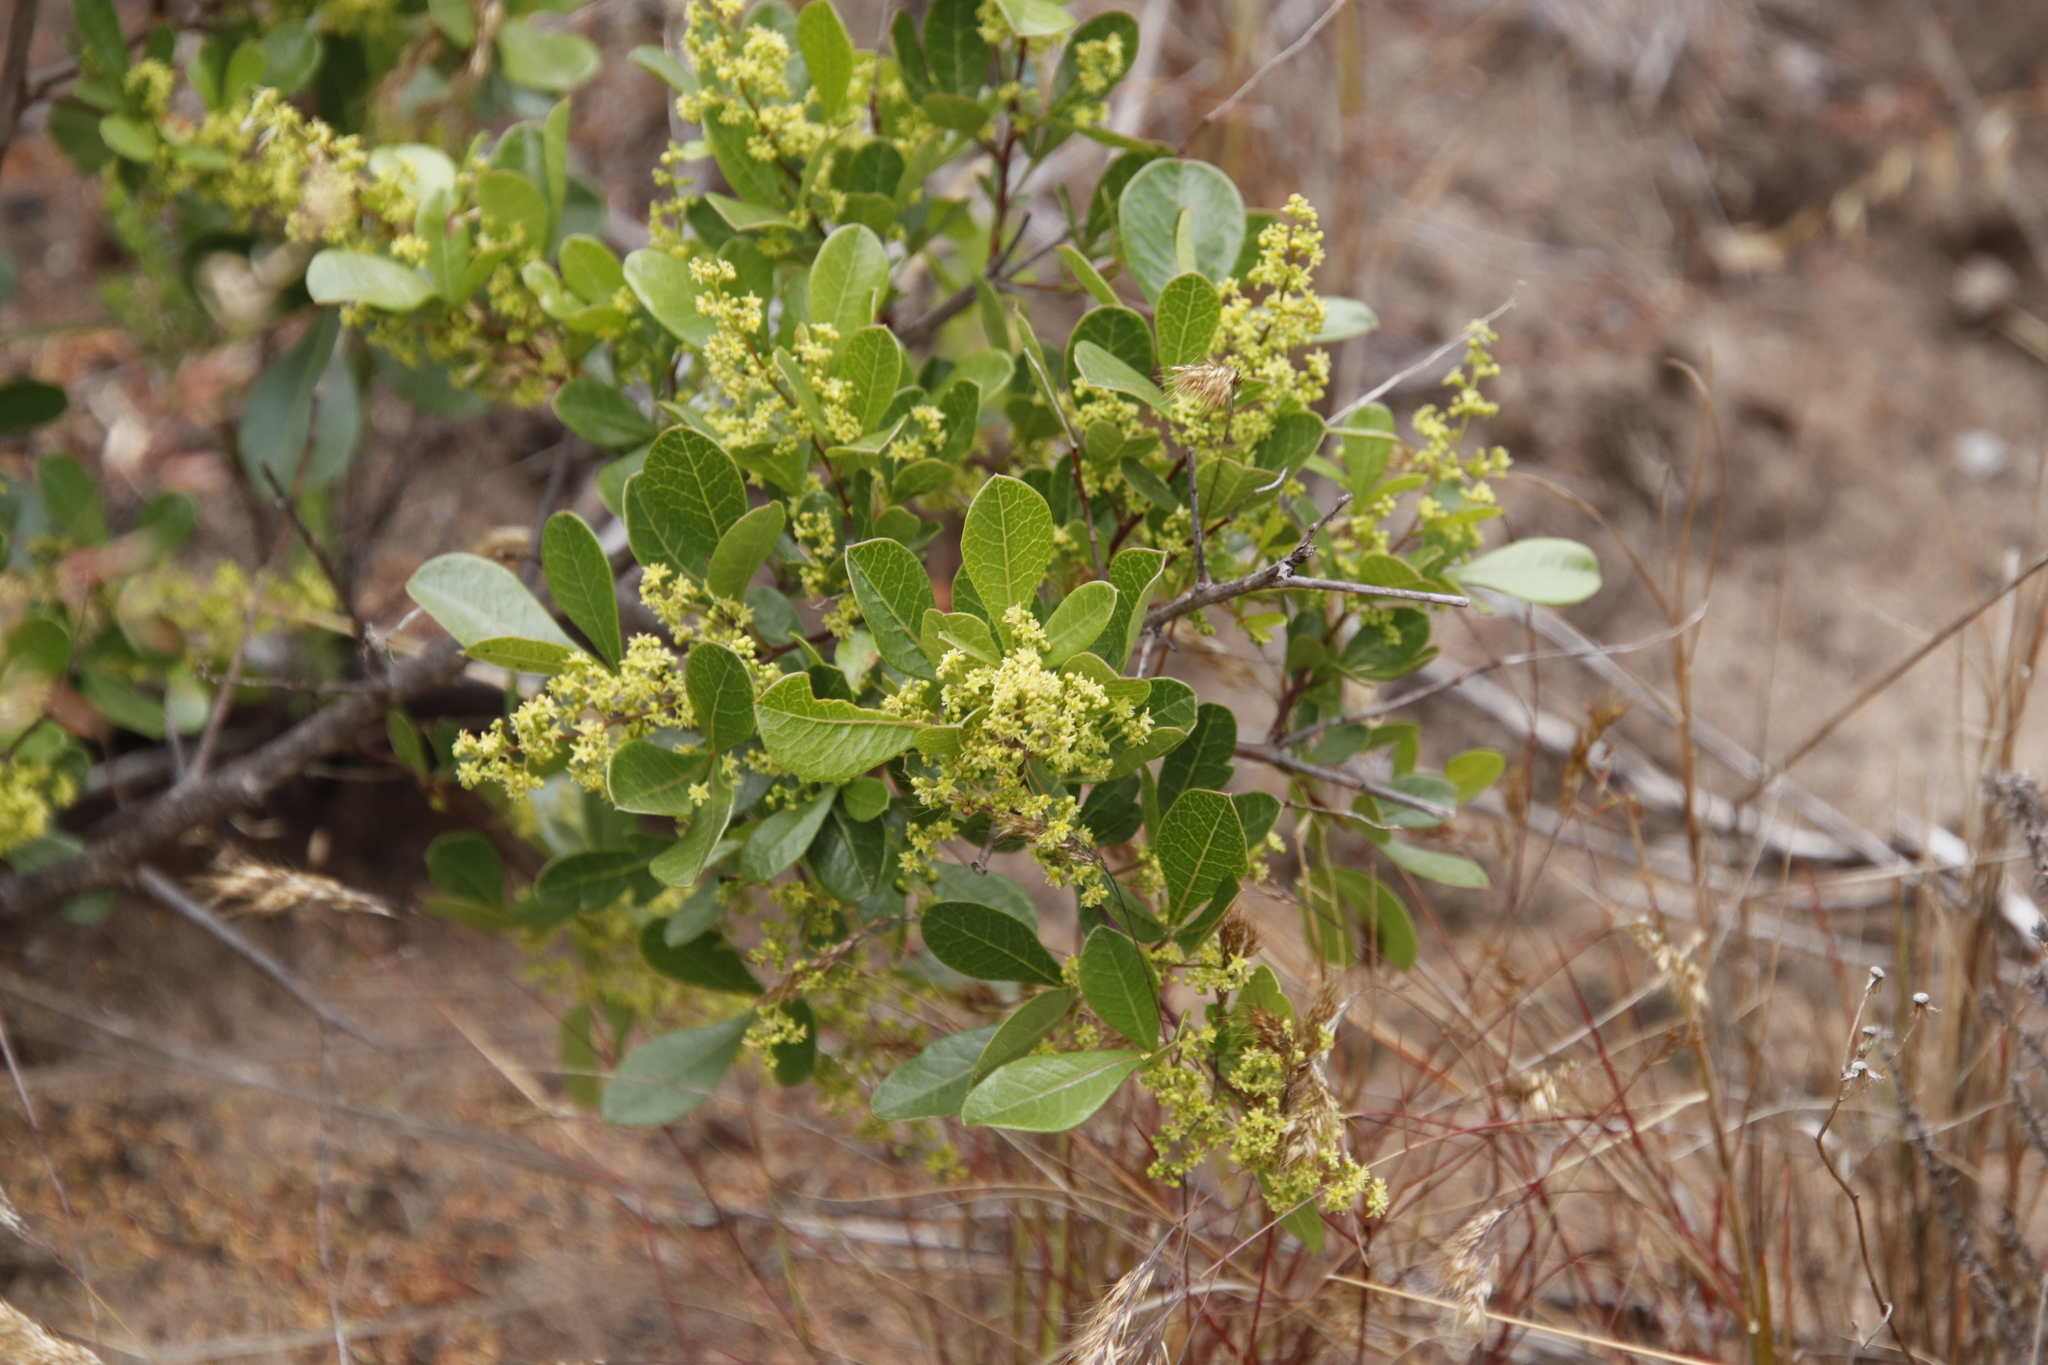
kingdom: Plantae
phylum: Tracheophyta
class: Magnoliopsida
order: Sapindales
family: Anacardiaceae
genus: Searsia
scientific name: Searsia laevigata
